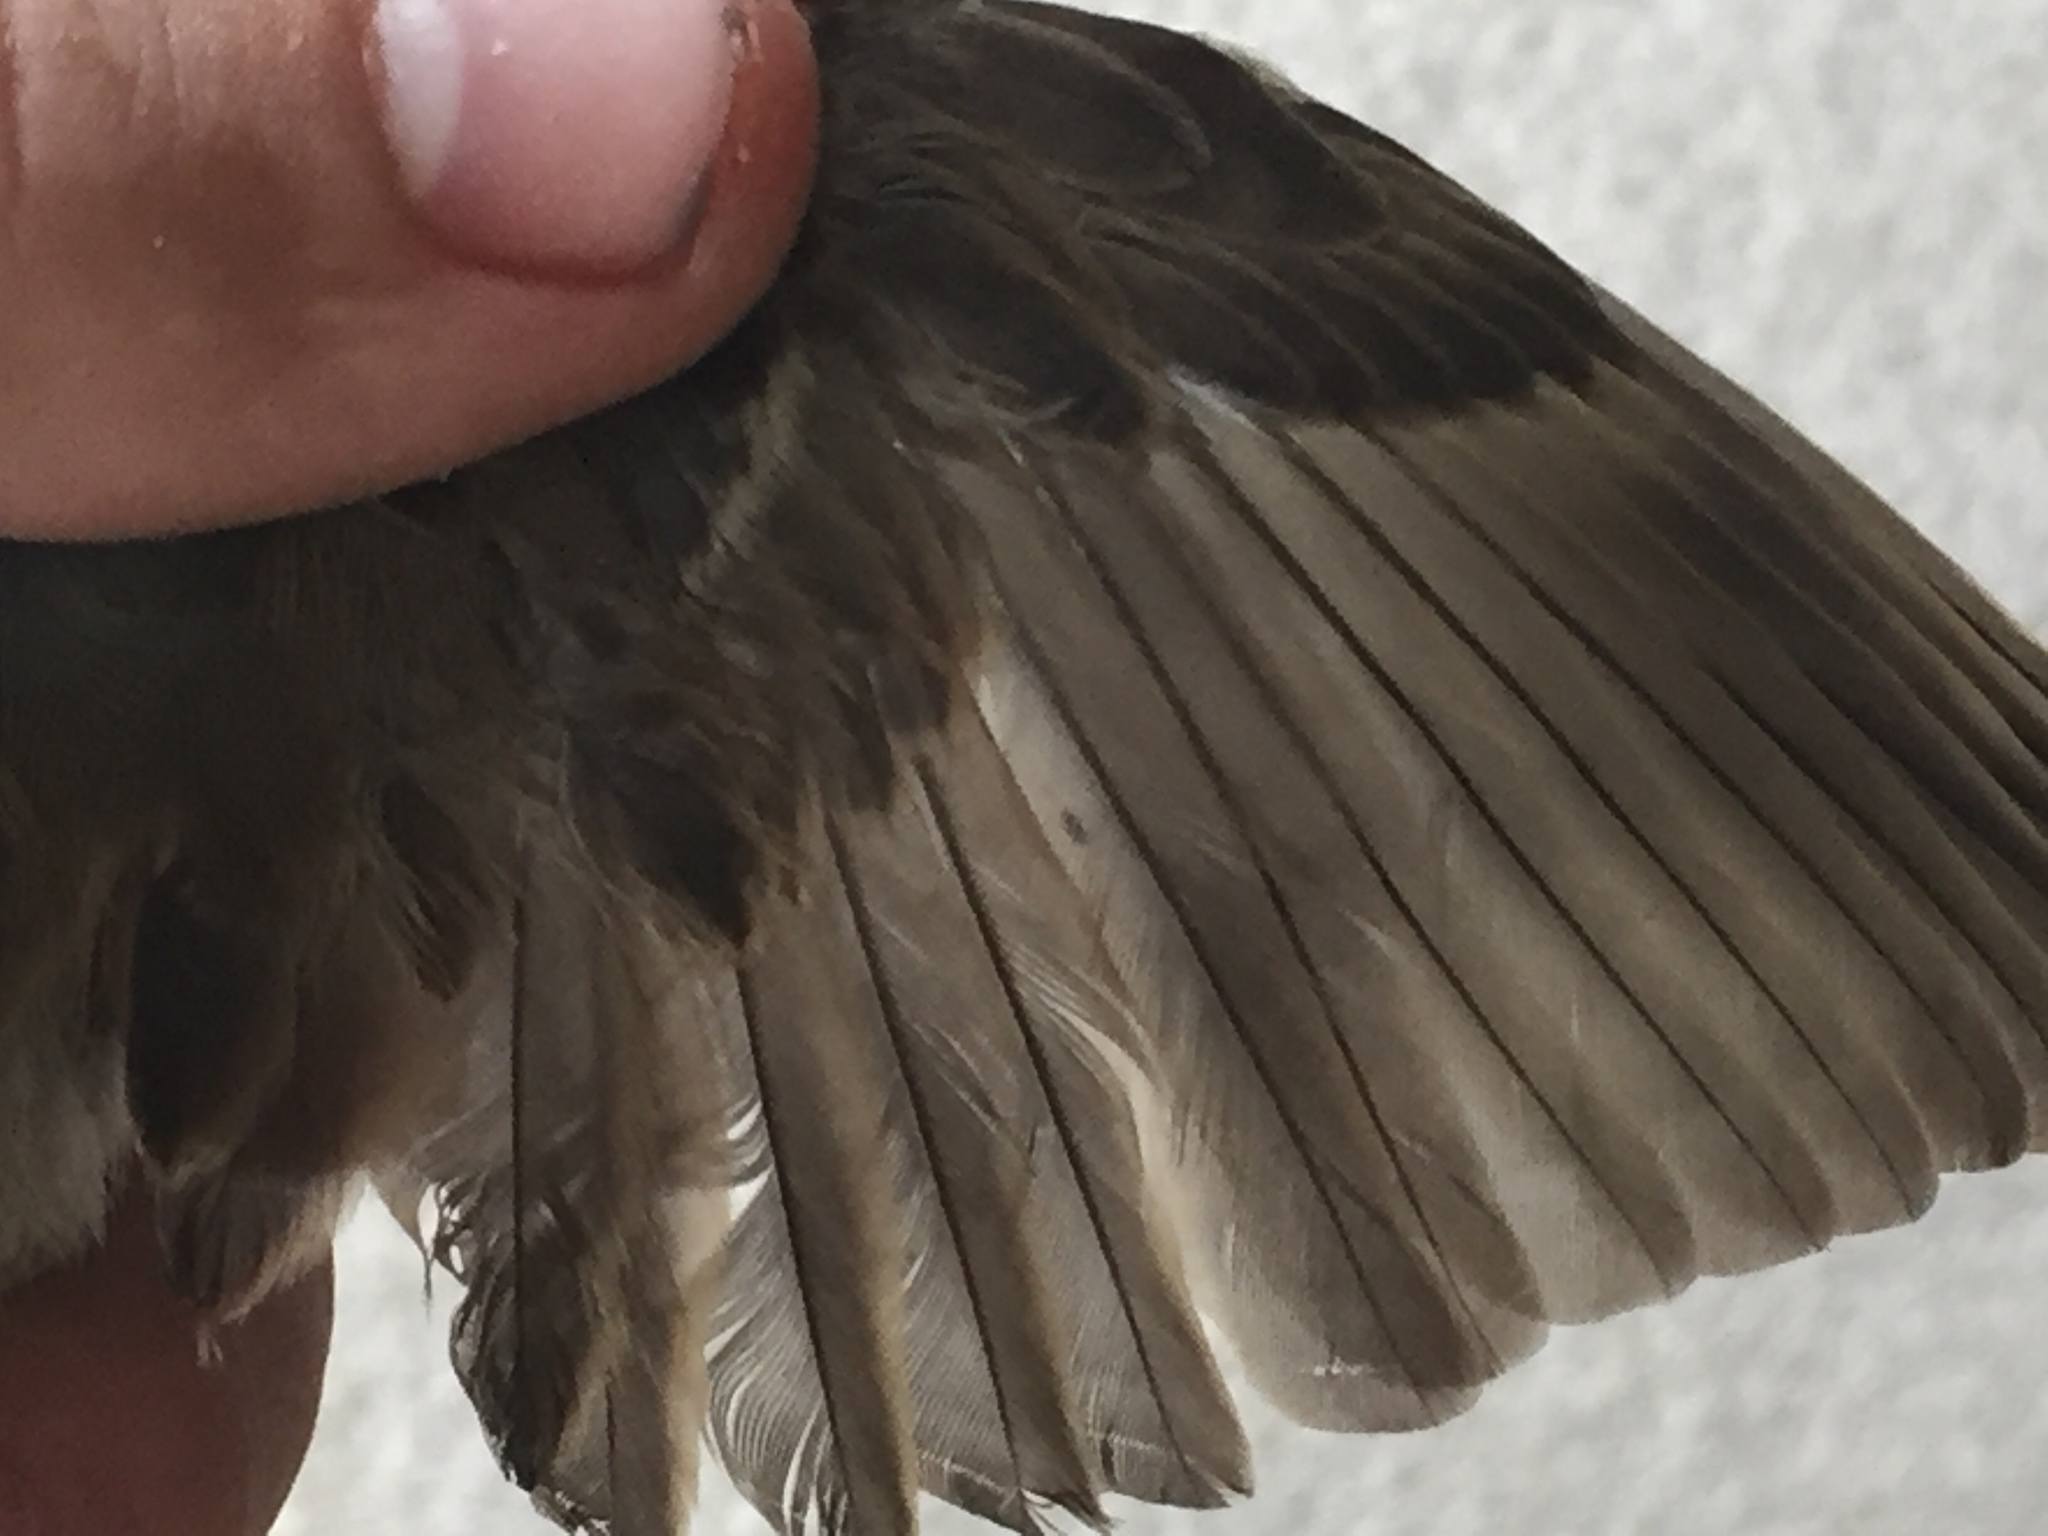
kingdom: Animalia
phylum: Chordata
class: Aves
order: Passeriformes
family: Passeridae
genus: Passer
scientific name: Passer domesticus
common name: House sparrow
